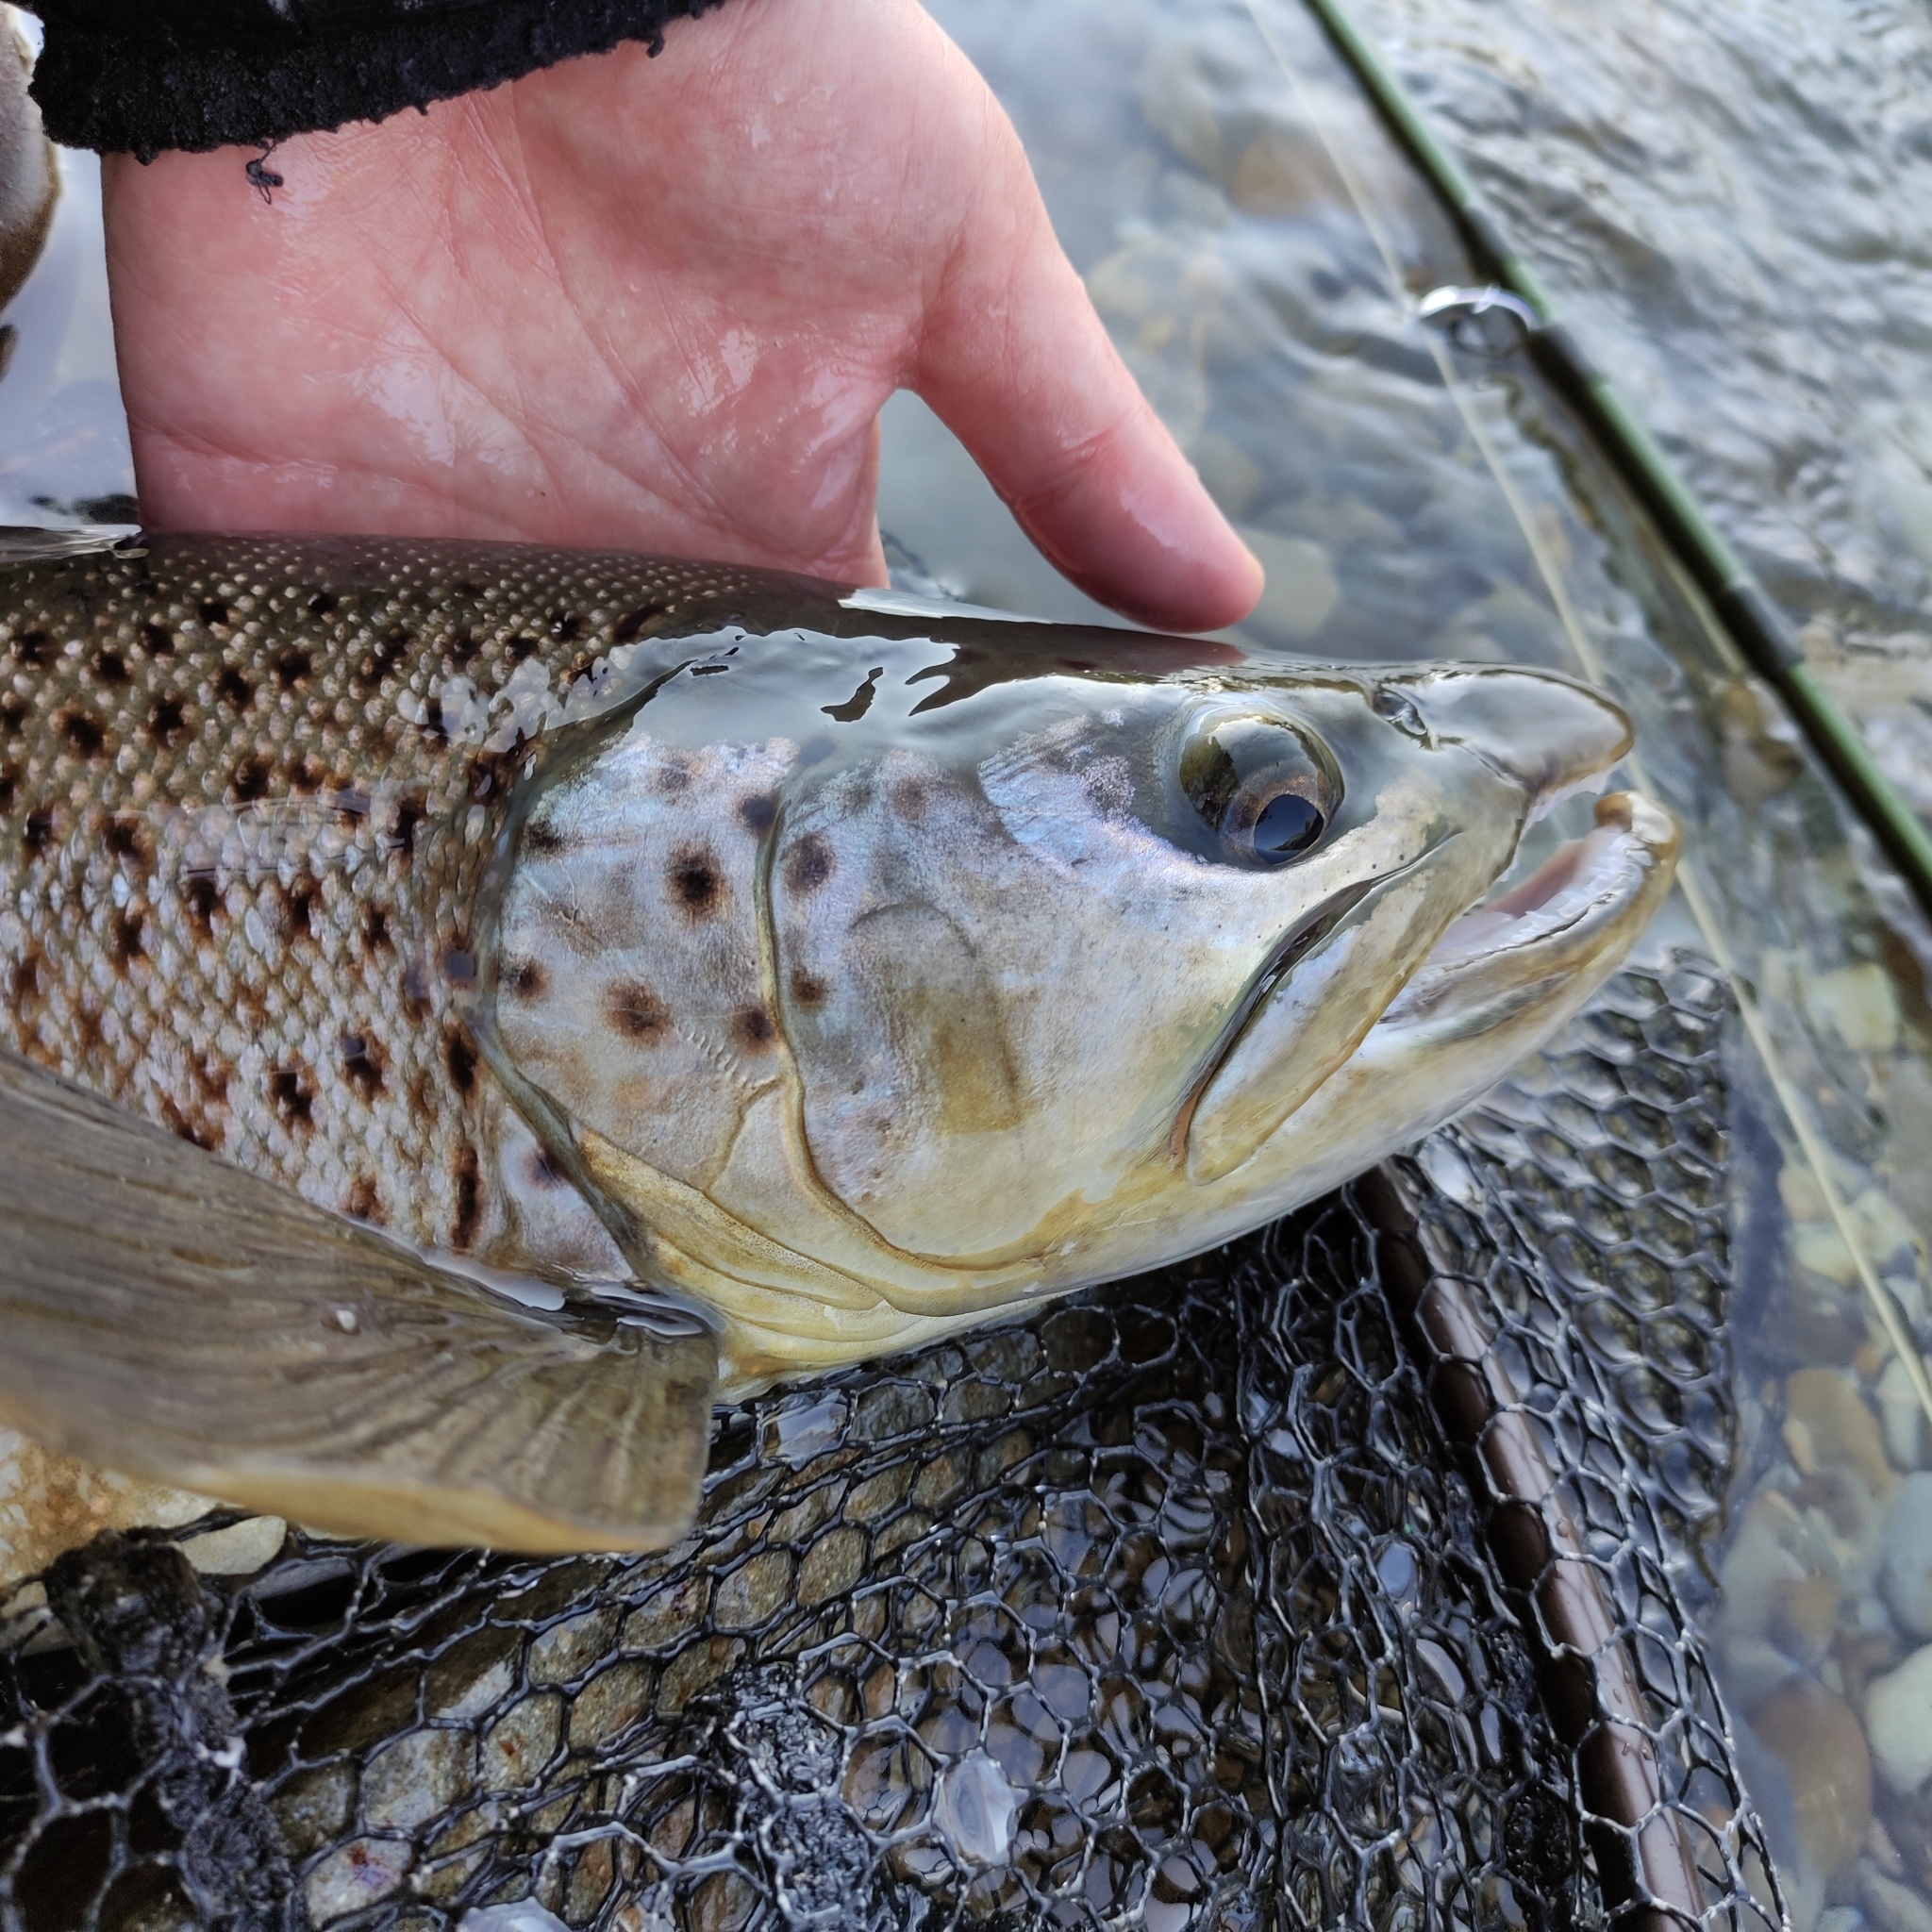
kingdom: Animalia
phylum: Chordata
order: Salmoniformes
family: Salmonidae
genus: Salmo
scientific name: Salmo trutta
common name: Brown trout
